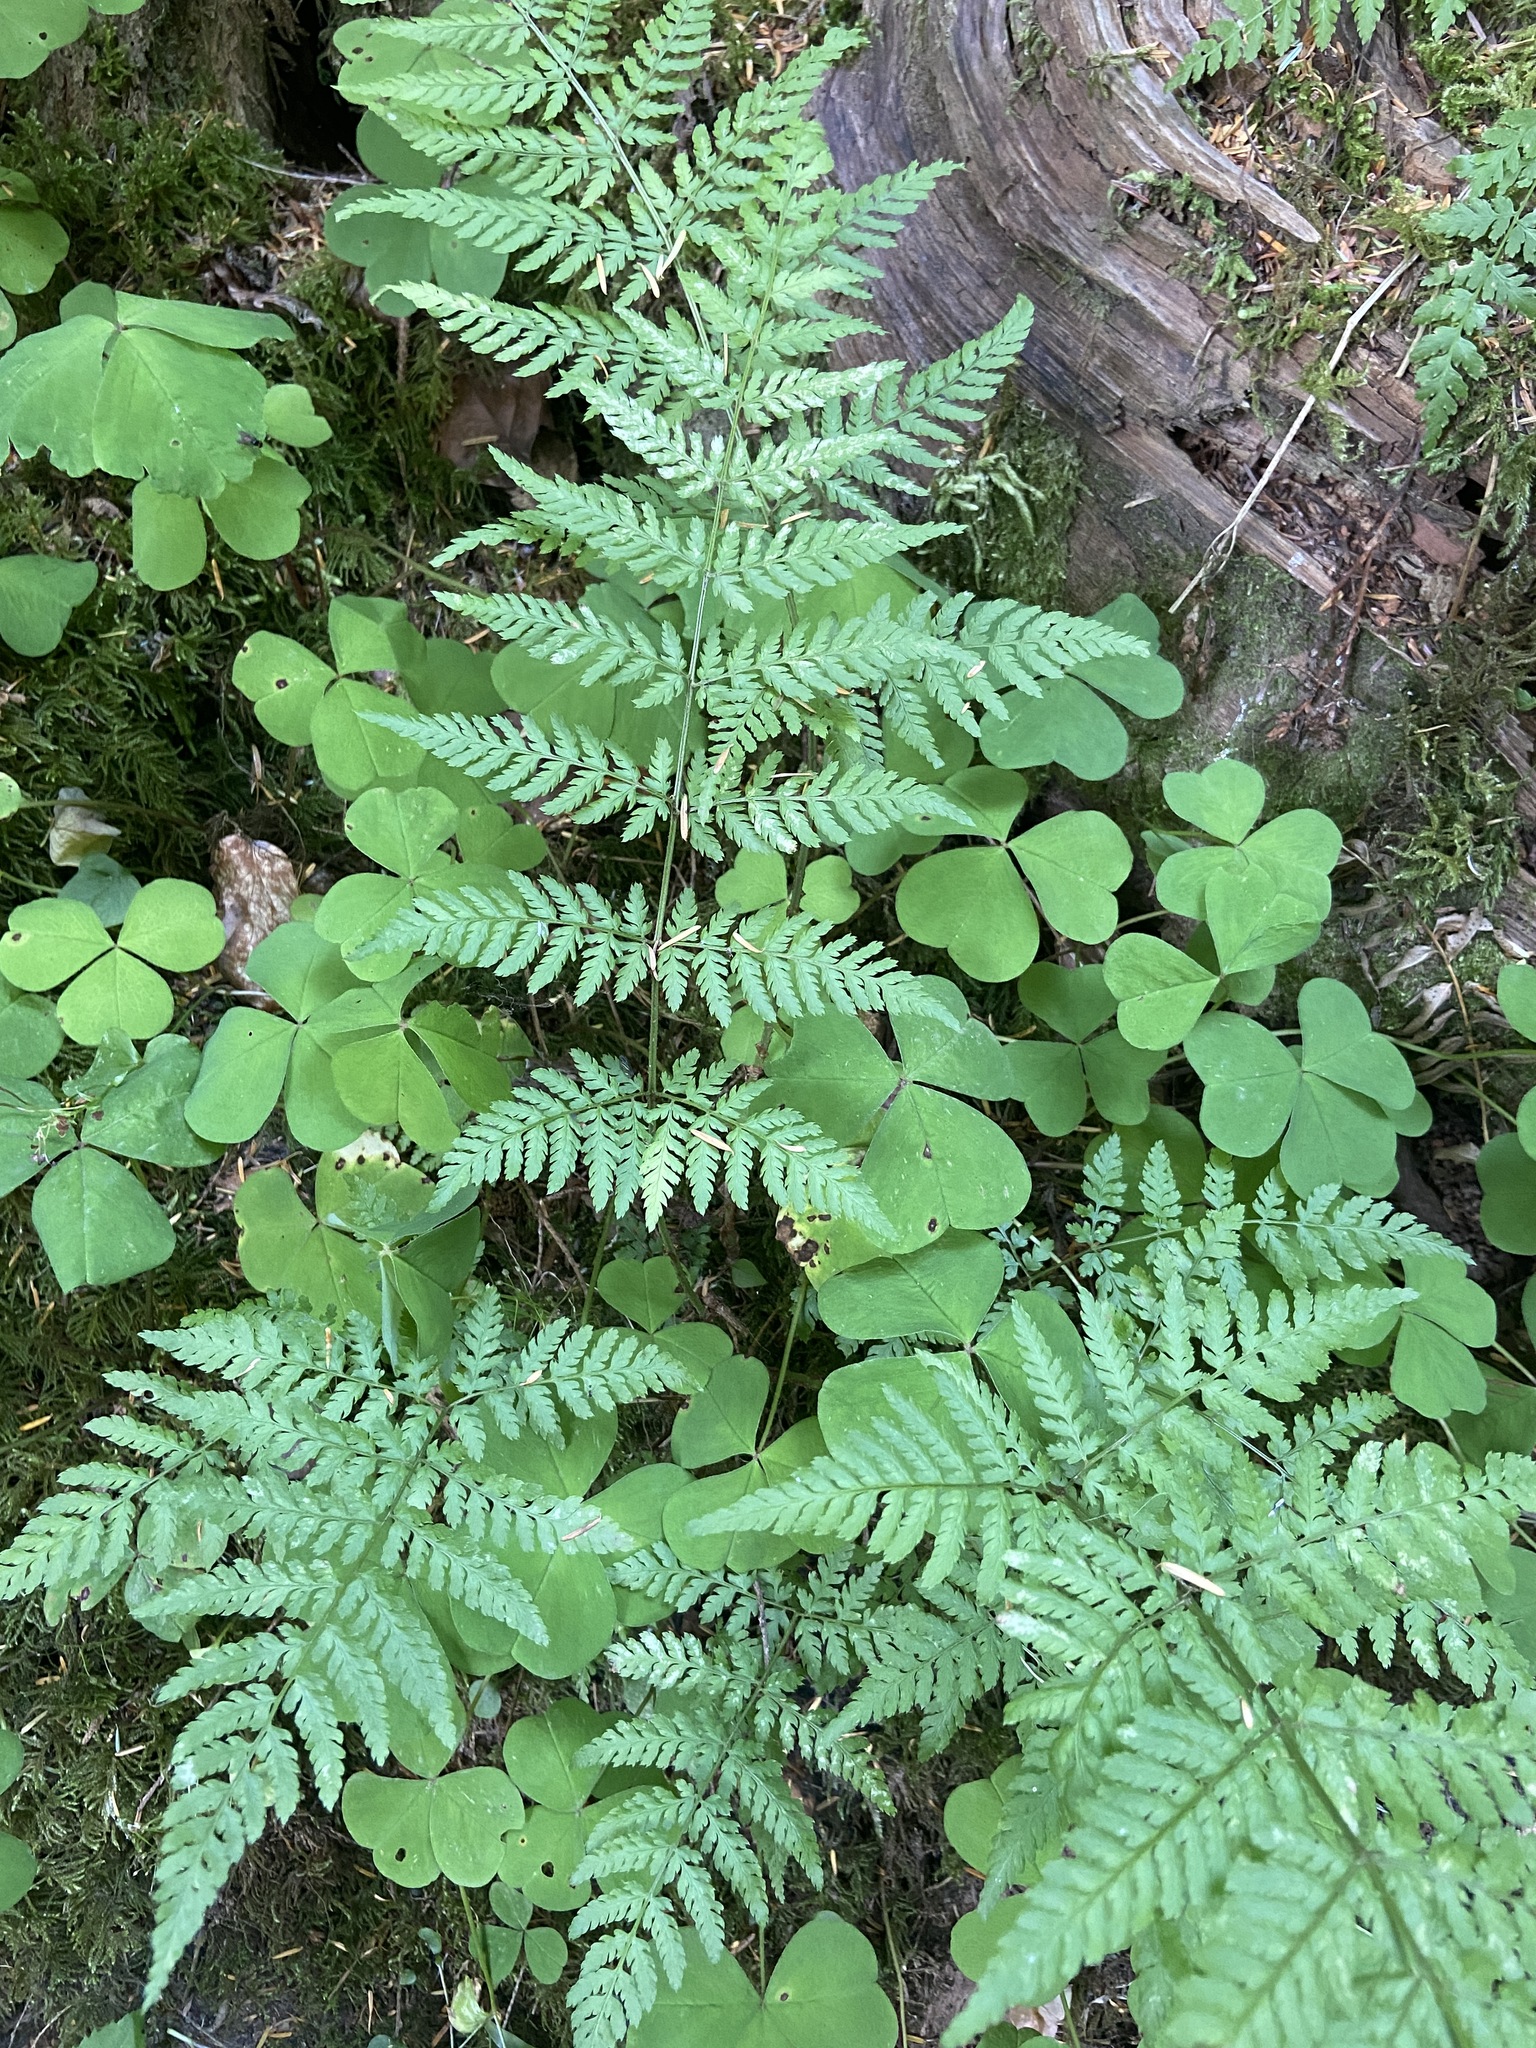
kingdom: Plantae
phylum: Tracheophyta
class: Polypodiopsida
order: Polypodiales
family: Dryopteridaceae
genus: Dryopteris
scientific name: Dryopteris expansa
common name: Northern buckler fern
